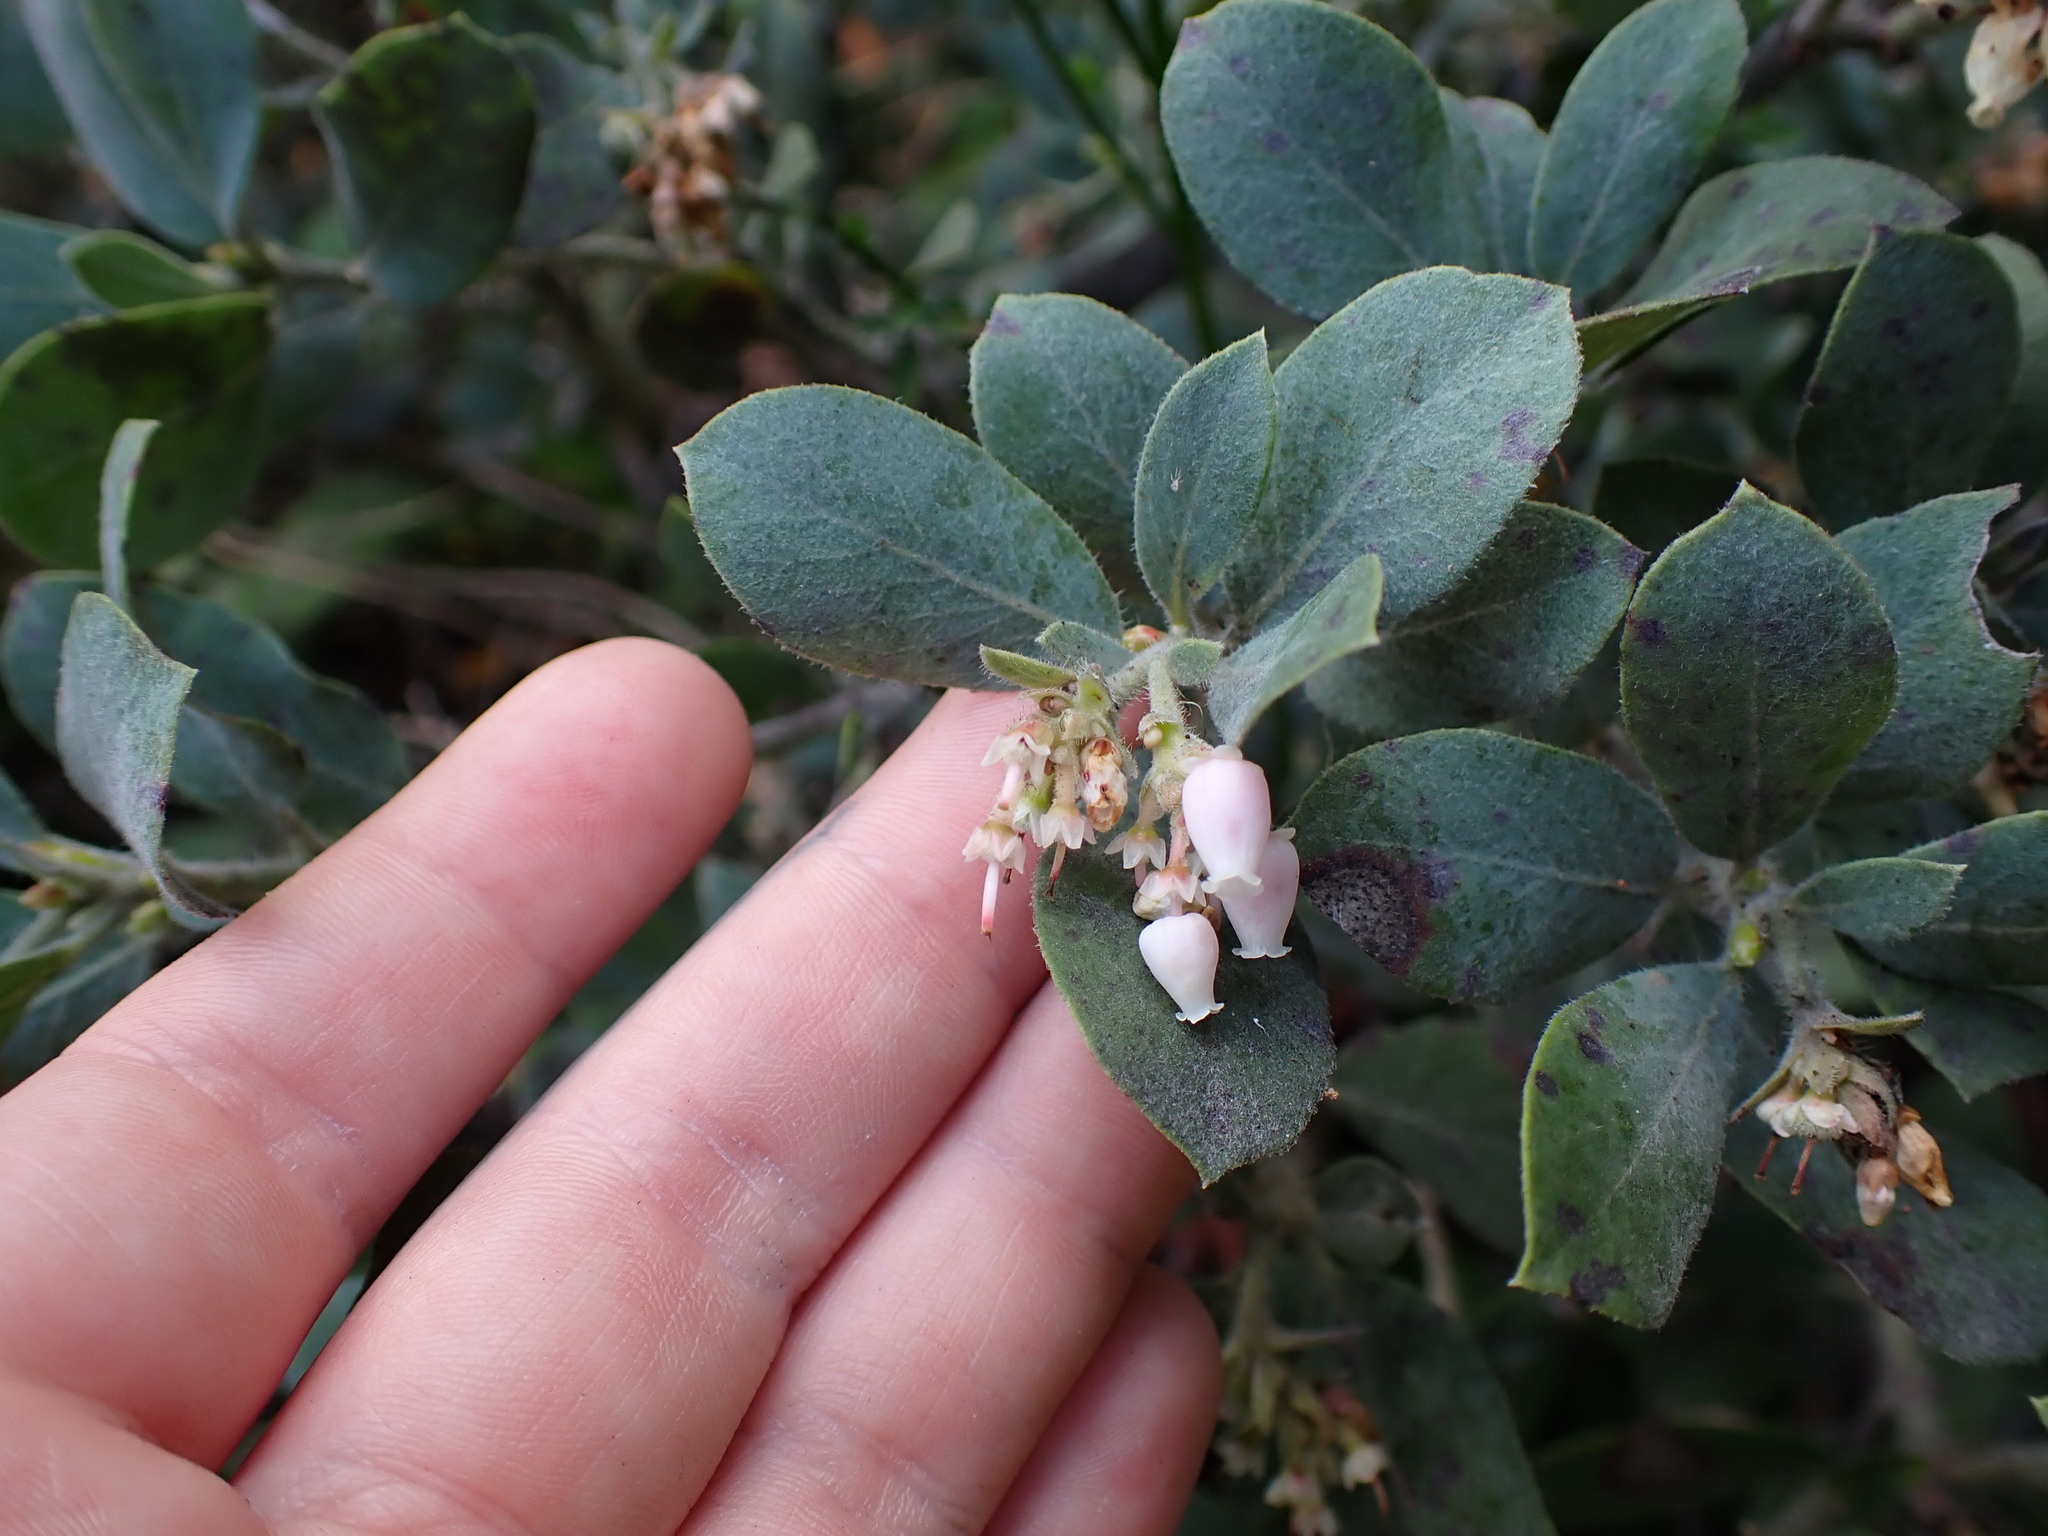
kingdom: Plantae
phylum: Tracheophyta
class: Magnoliopsida
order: Ericales
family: Ericaceae
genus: Arctostaphylos
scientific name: Arctostaphylos columbiana
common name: Bristly bearberry
